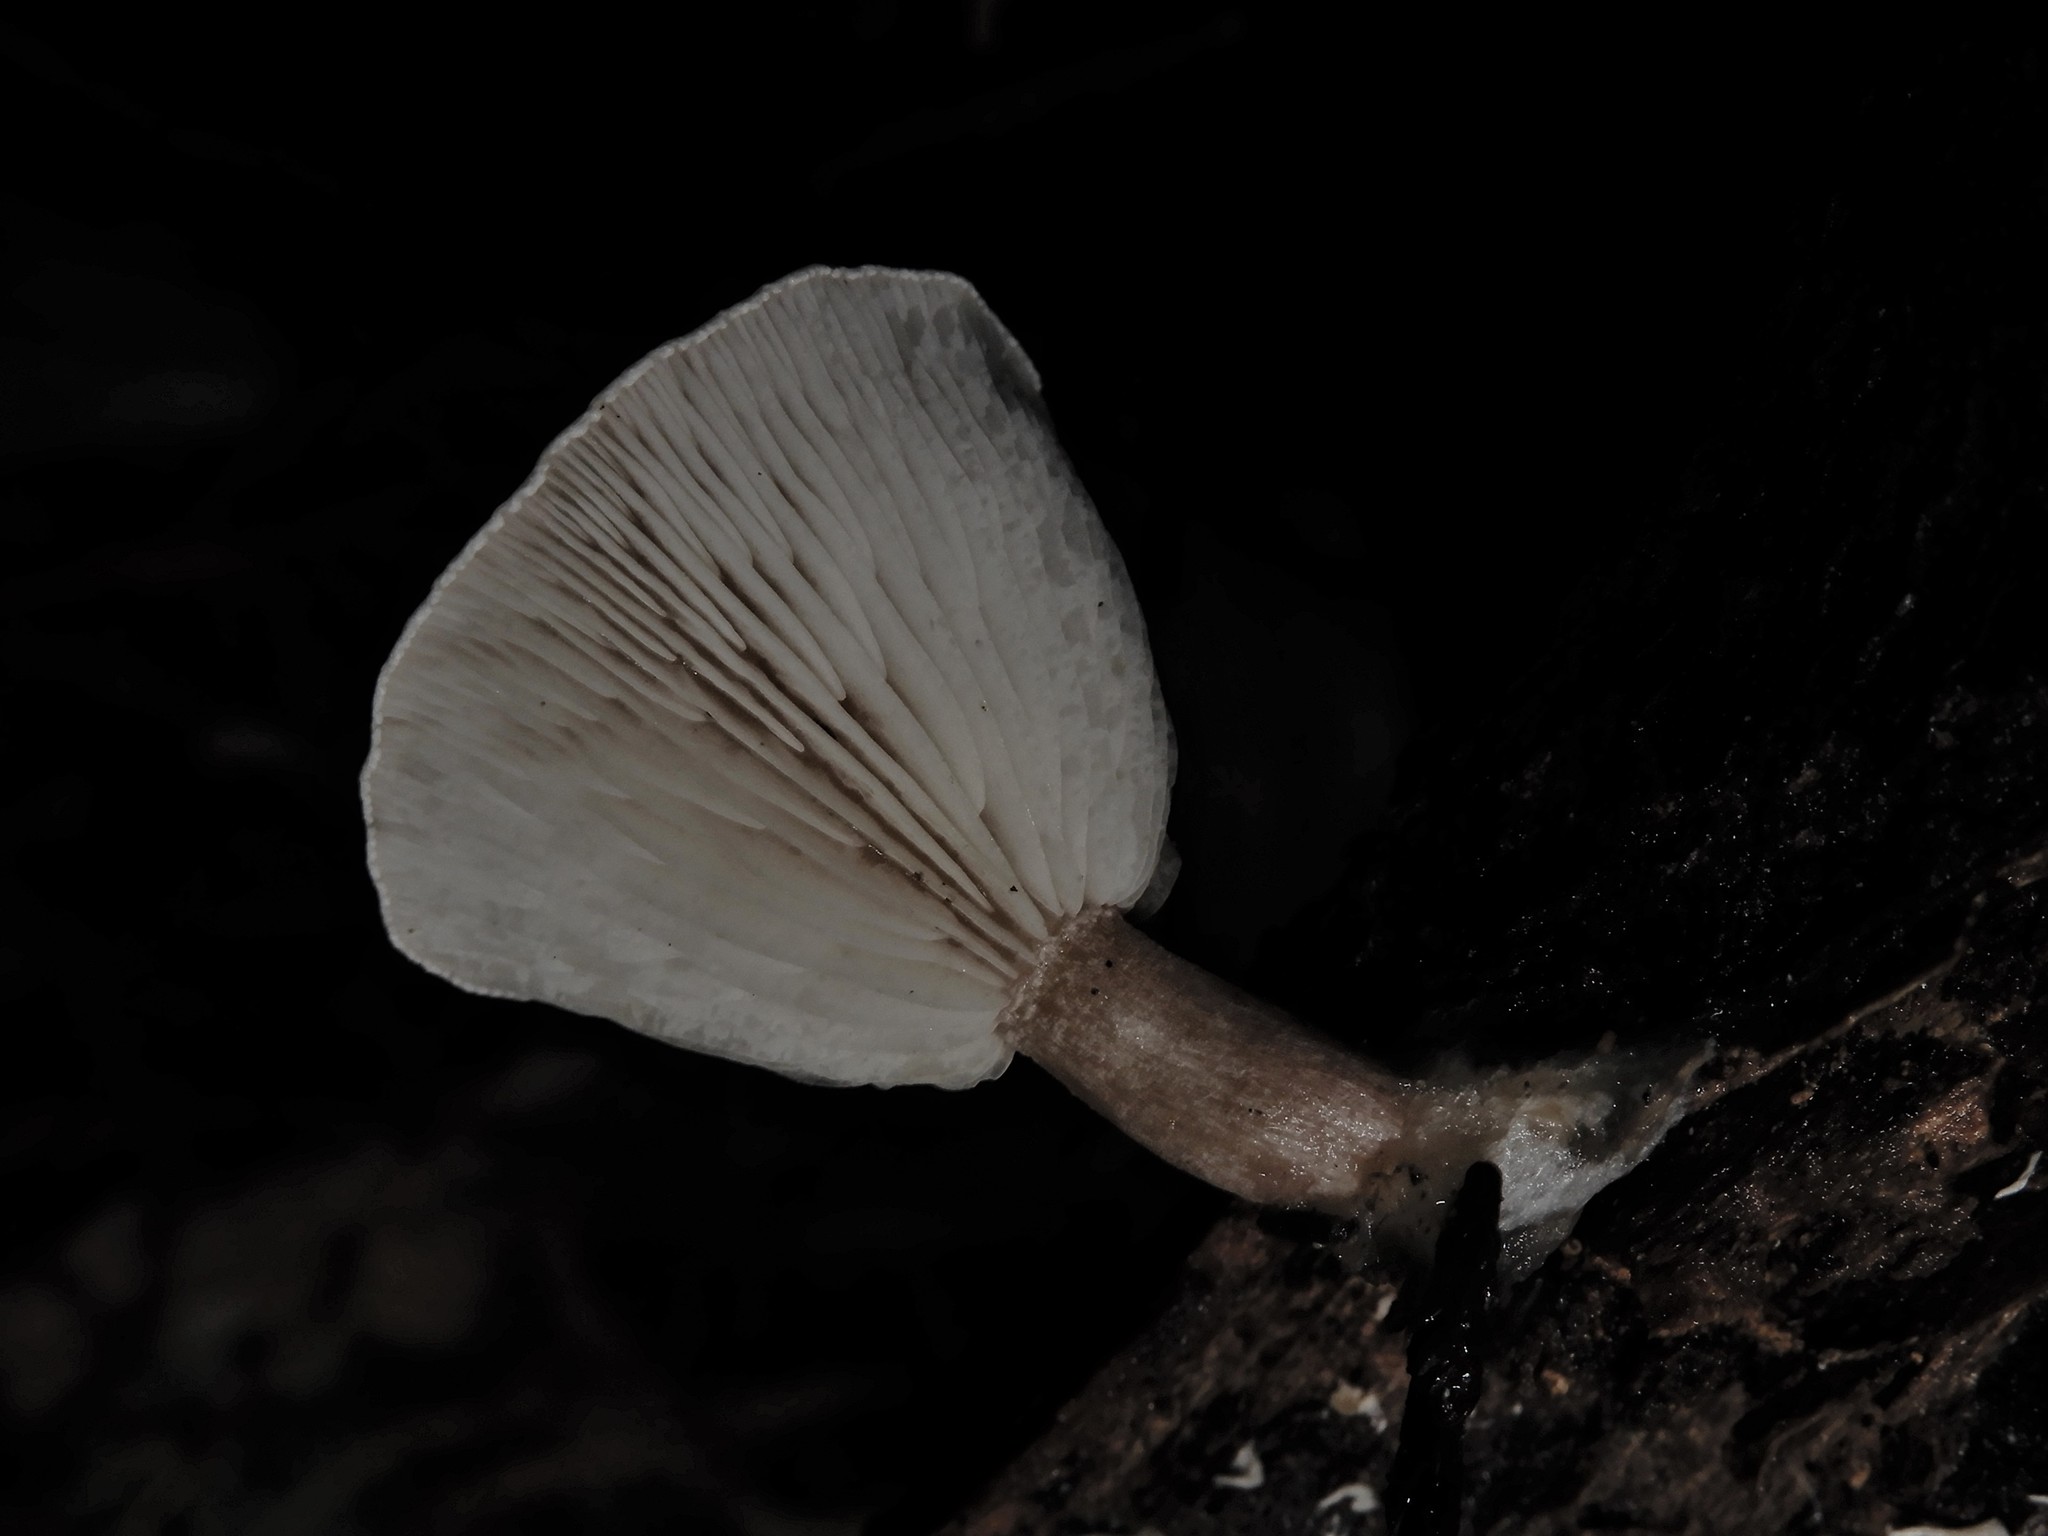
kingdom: Fungi
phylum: Basidiomycota
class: Agaricomycetes
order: Agaricales
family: Tricholomataceae
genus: Clitocybe
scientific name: Clitocybe wellingtonensis
